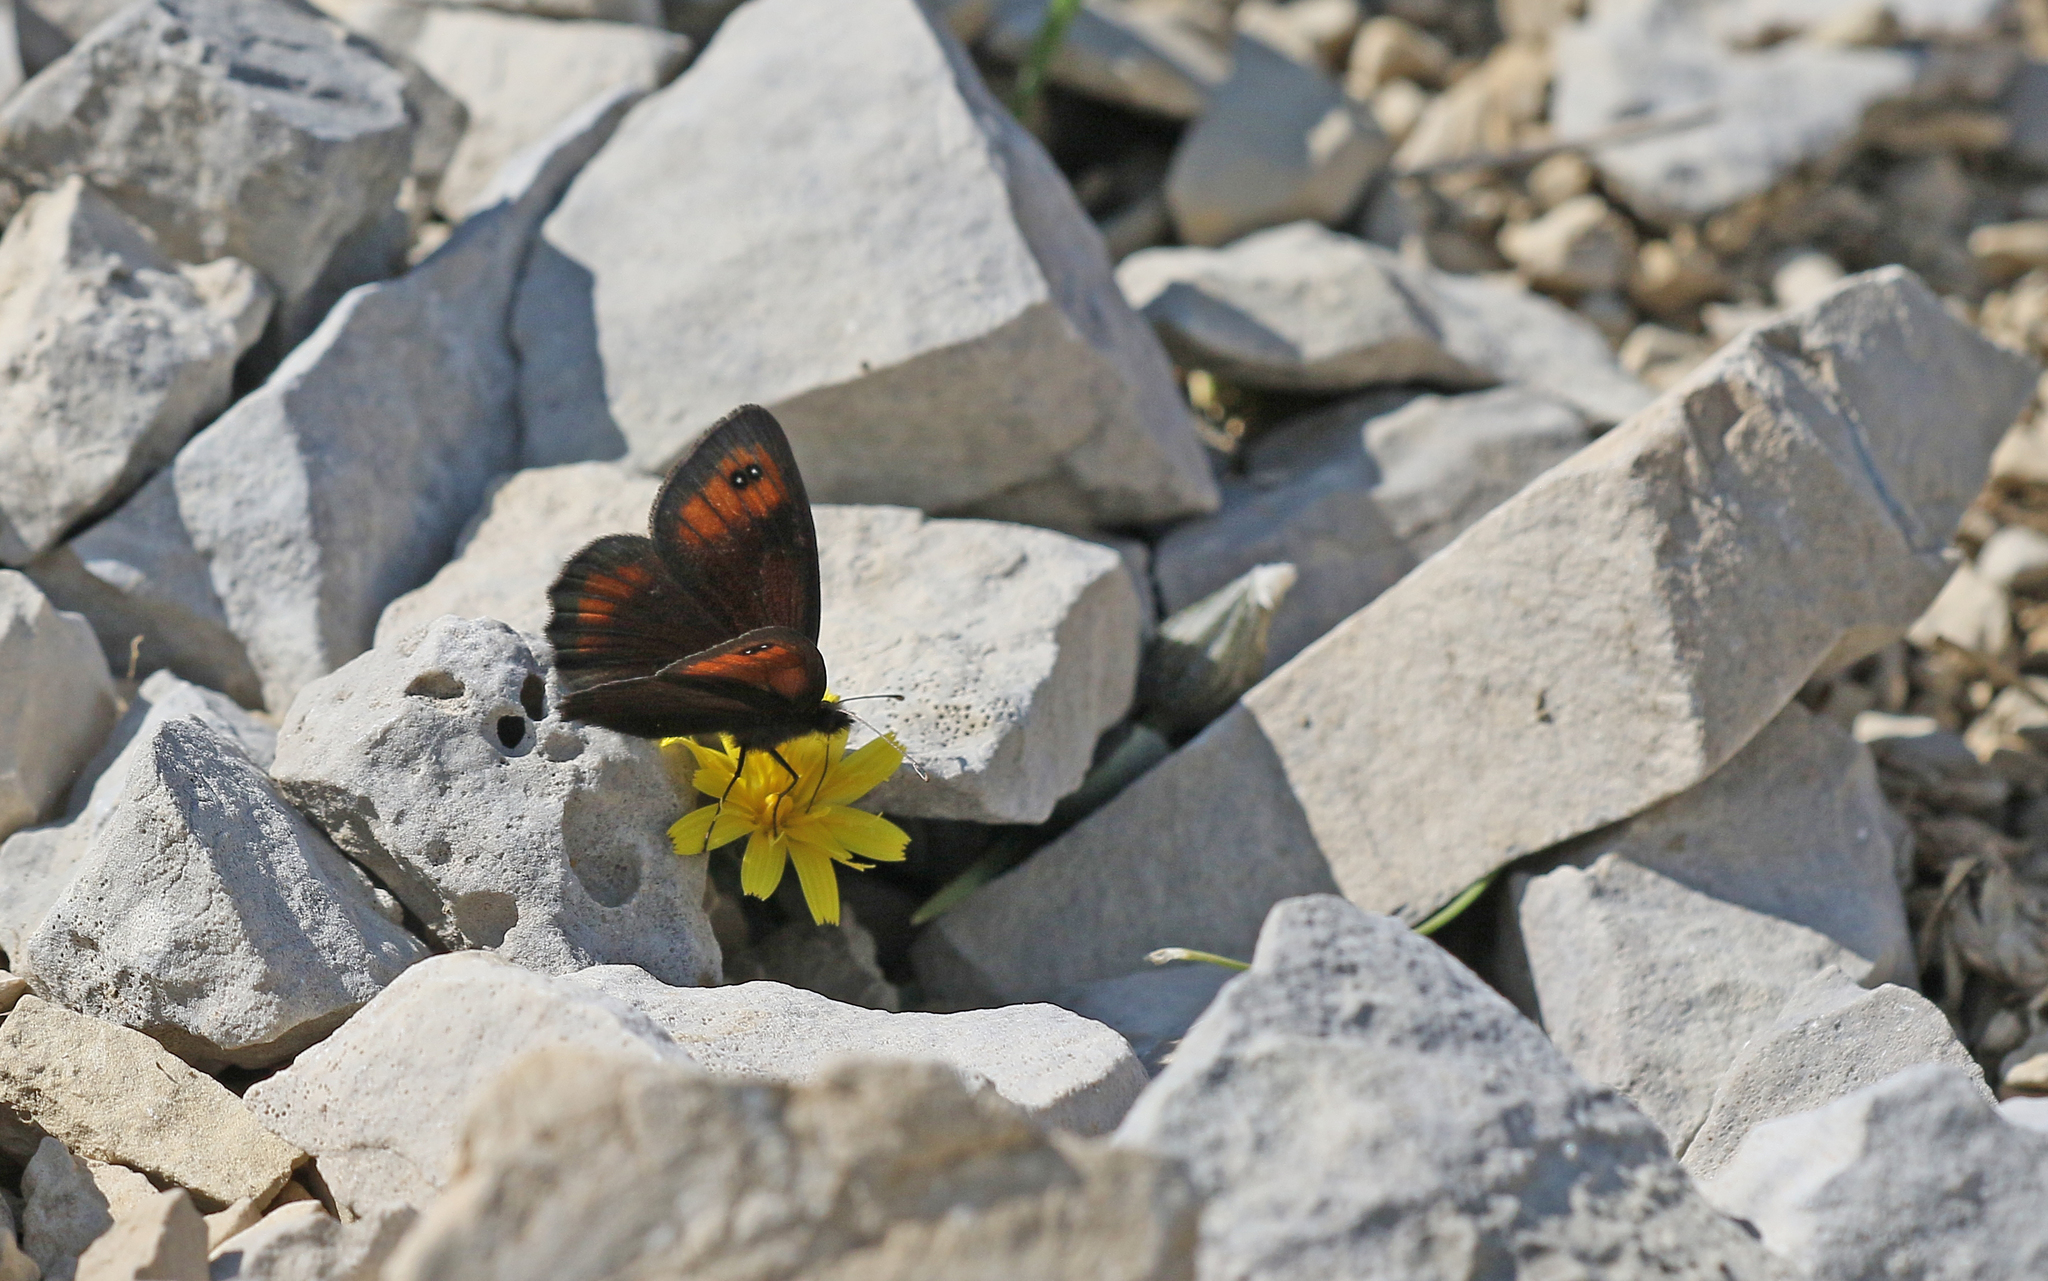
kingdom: Animalia
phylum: Arthropoda
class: Insecta
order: Lepidoptera
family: Nymphalidae
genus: Erebia
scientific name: Erebia scipio
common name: Larche ringlet
